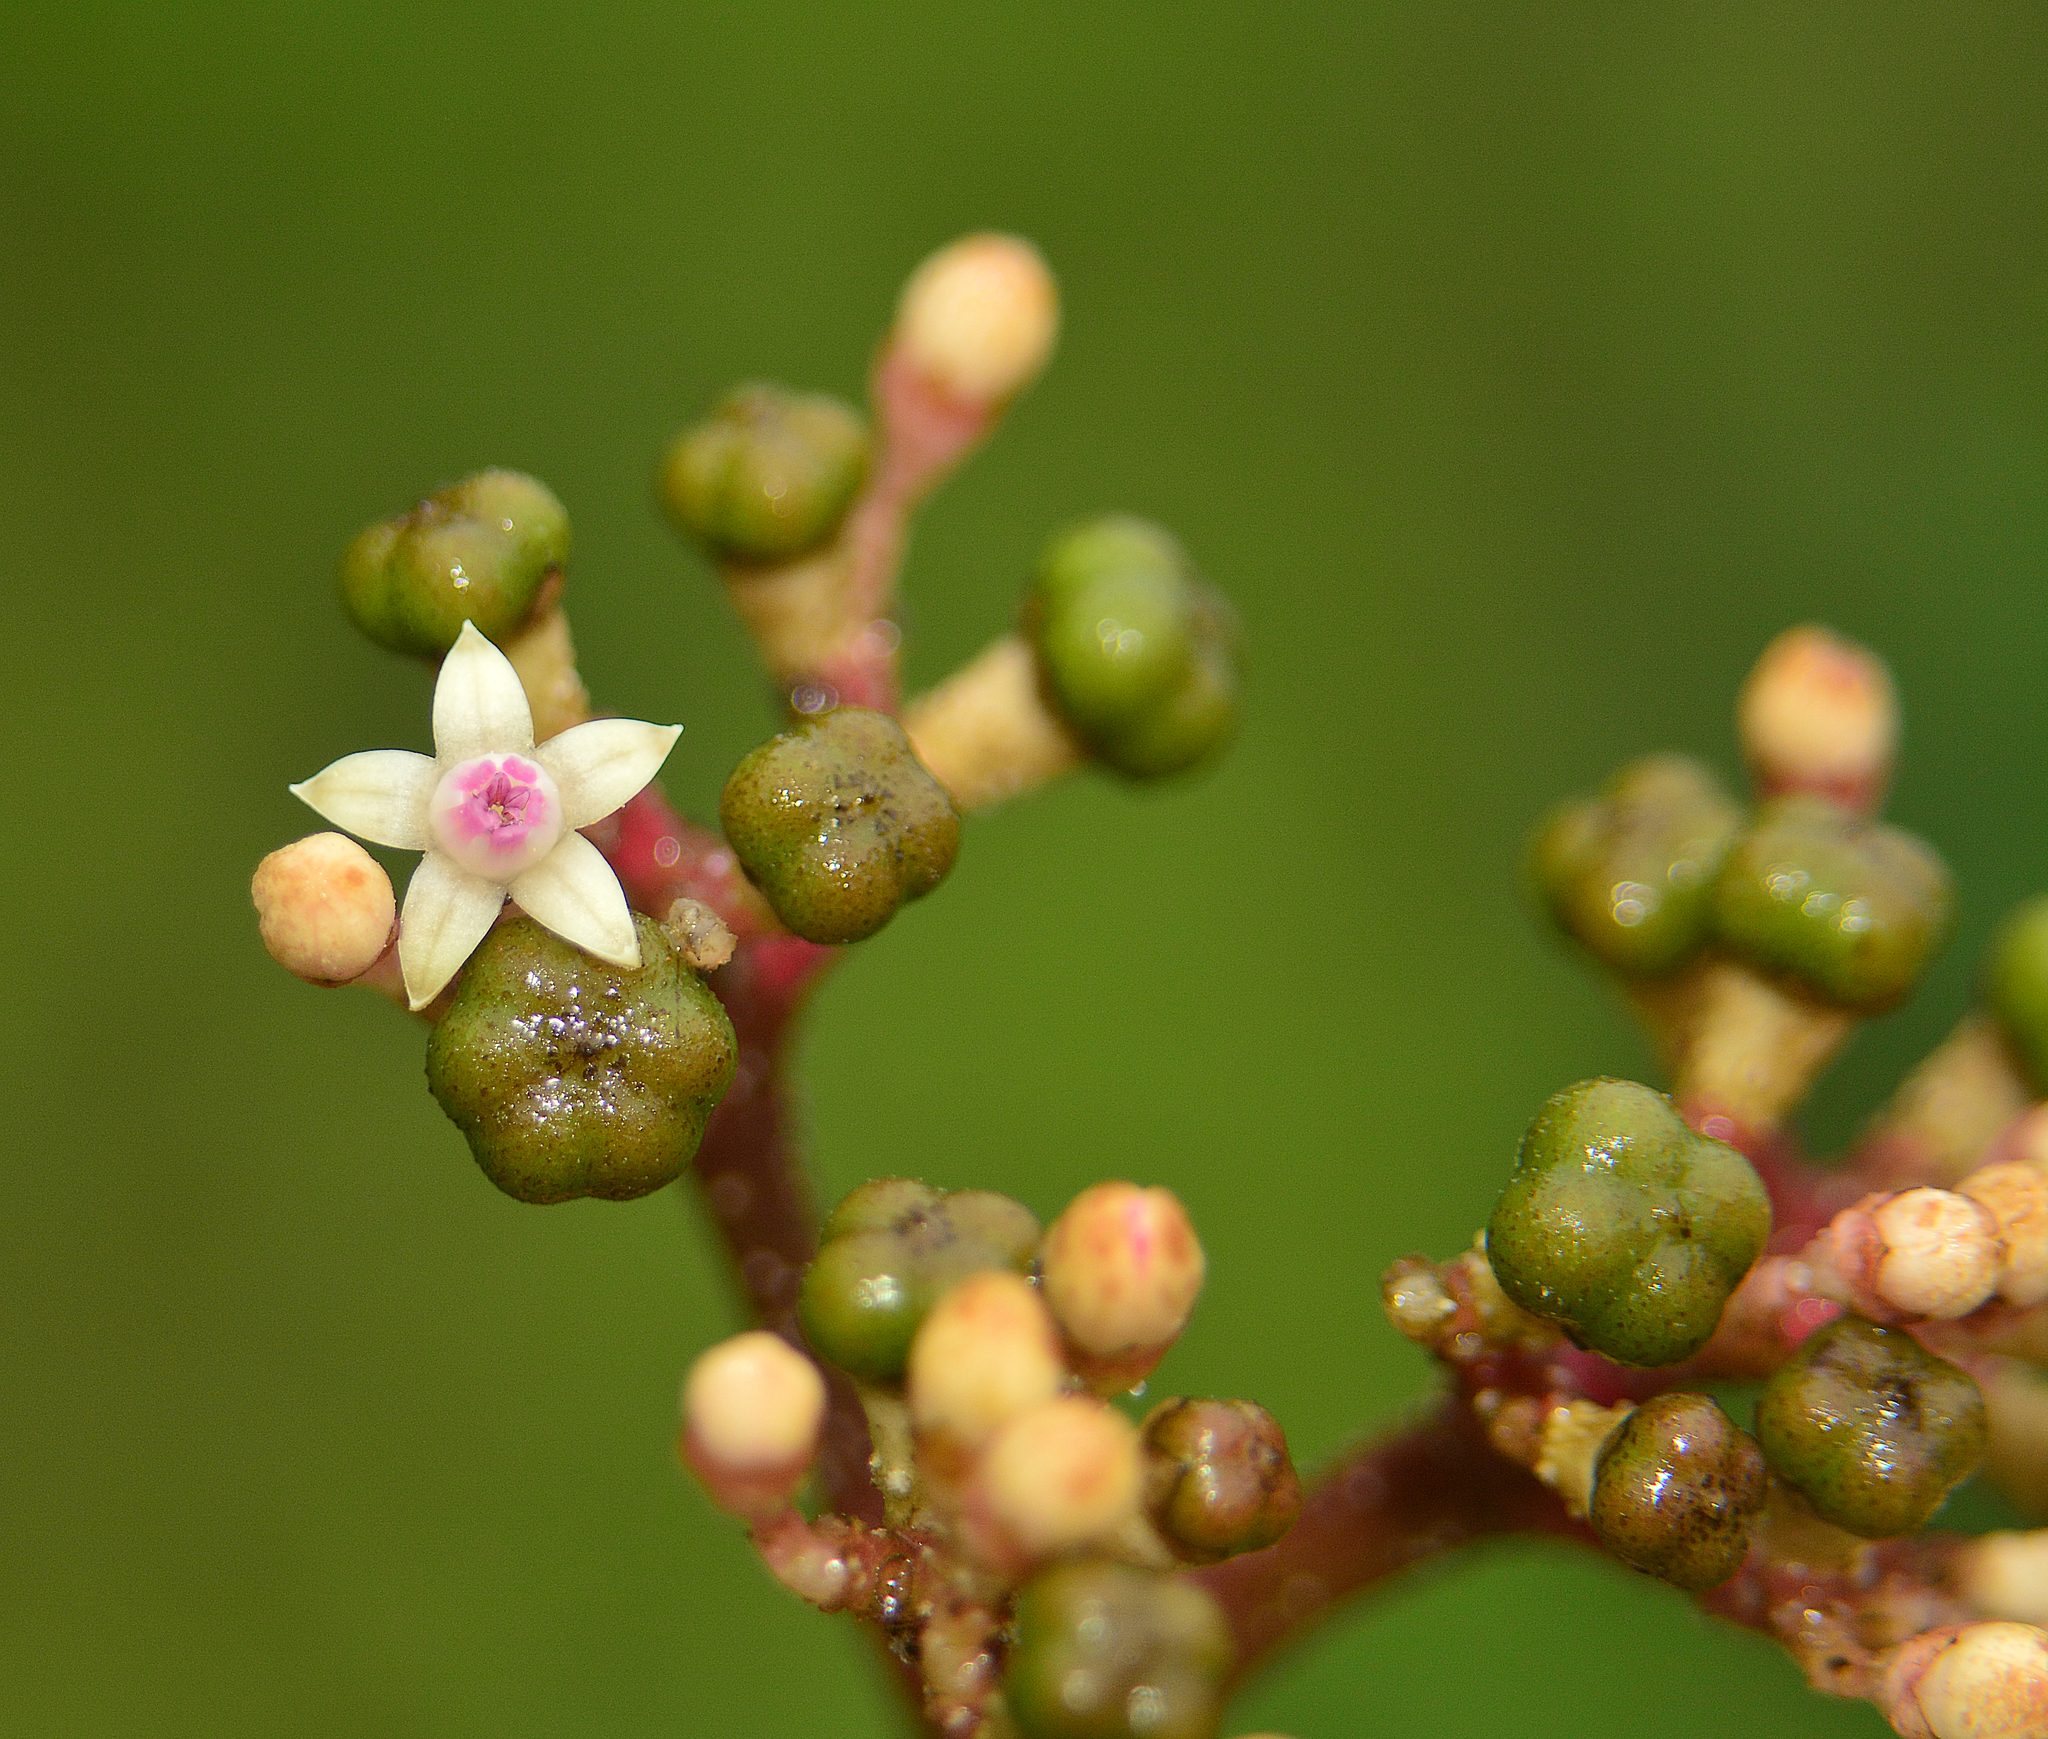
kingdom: Plantae
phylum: Tracheophyta
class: Magnoliopsida
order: Vitales
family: Vitaceae
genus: Leea
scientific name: Leea
